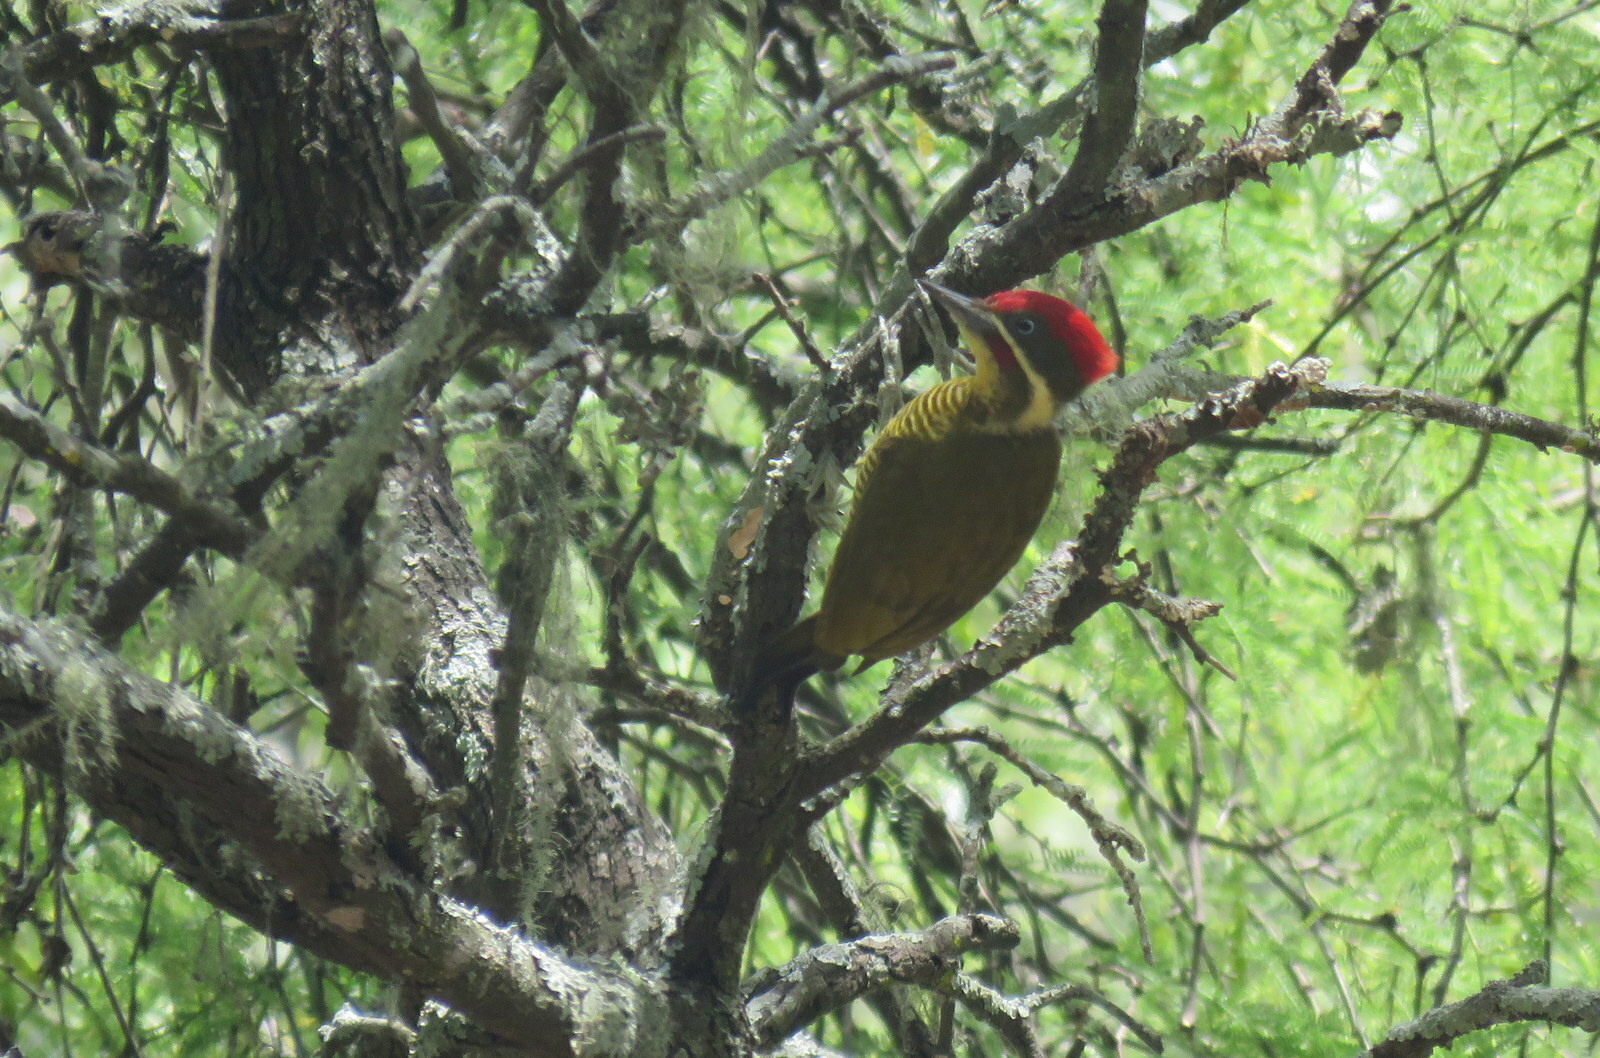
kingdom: Animalia
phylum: Chordata
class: Aves
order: Piciformes
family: Picidae
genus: Piculus
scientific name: Piculus chrysochloros
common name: Golden-green woodpecker
